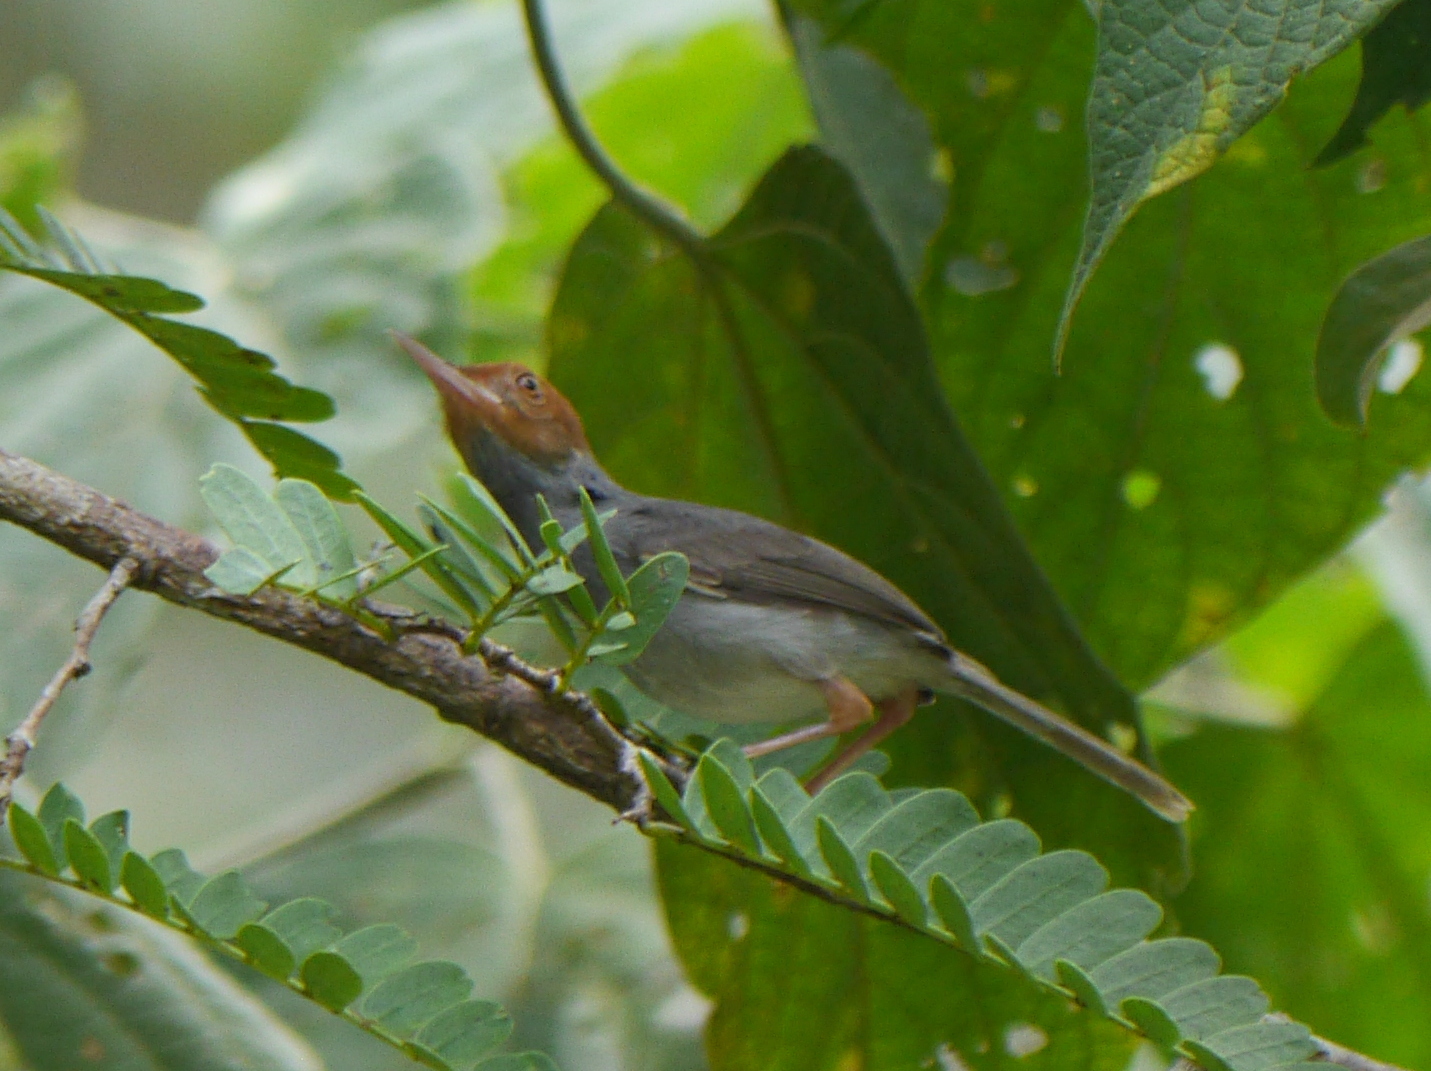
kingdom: Animalia
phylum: Chordata
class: Aves
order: Passeriformes
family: Cisticolidae
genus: Orthotomus
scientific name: Orthotomus ruficeps
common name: Ashy tailorbird
